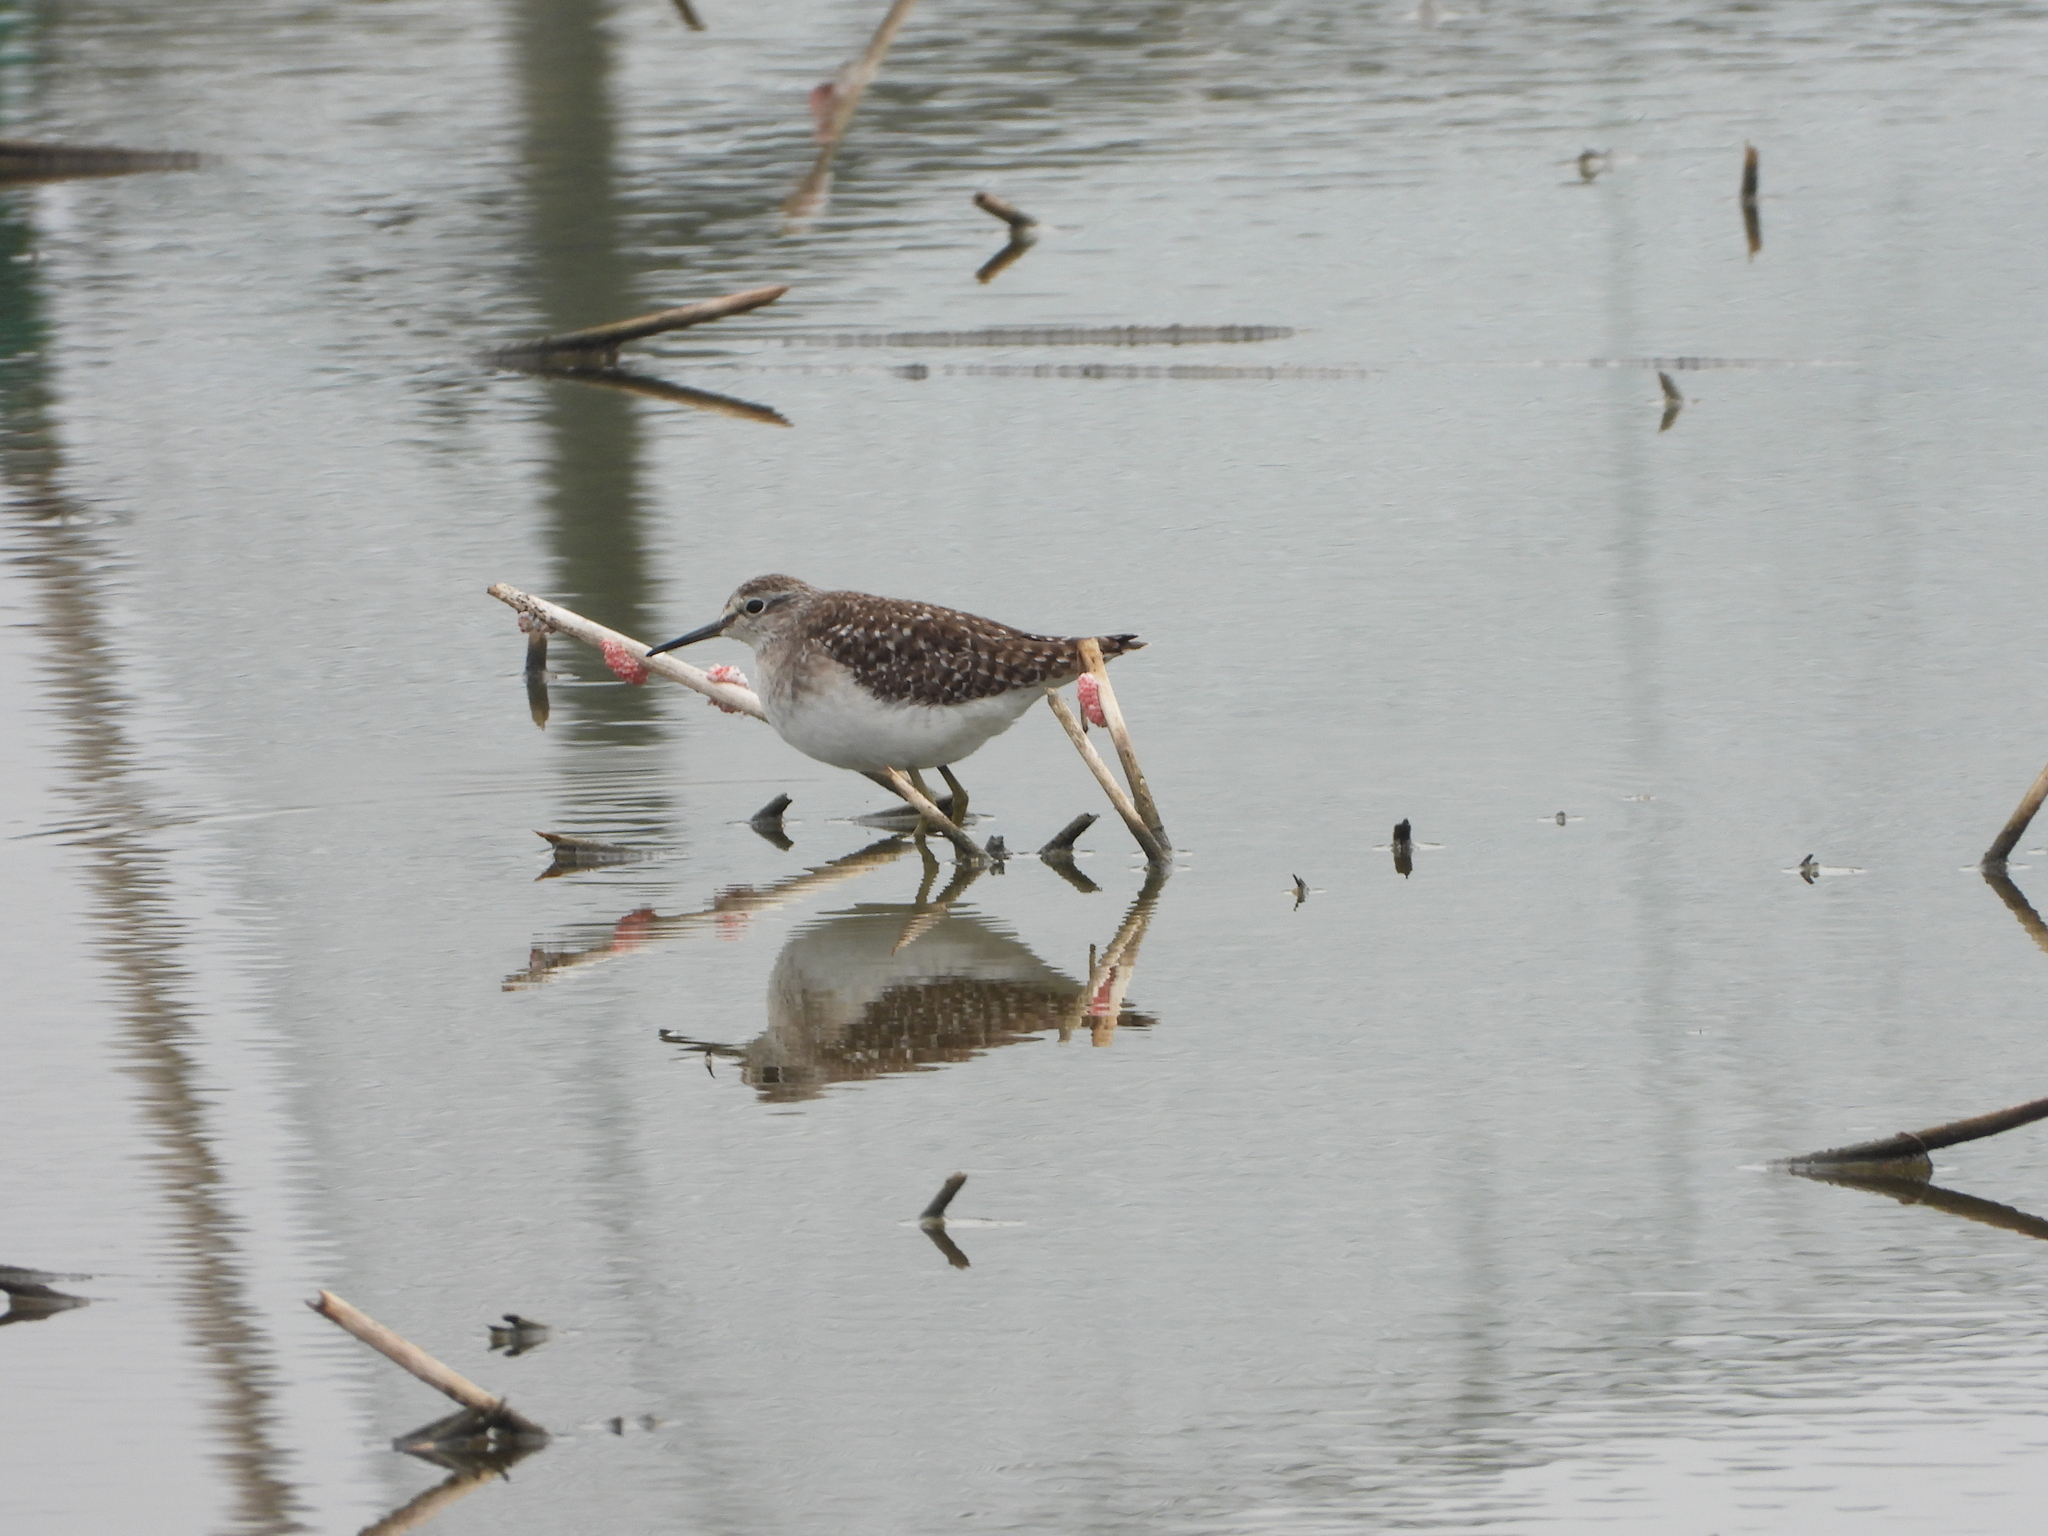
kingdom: Animalia
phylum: Chordata
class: Aves
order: Charadriiformes
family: Scolopacidae
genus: Tringa
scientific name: Tringa glareola
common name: Wood sandpiper
